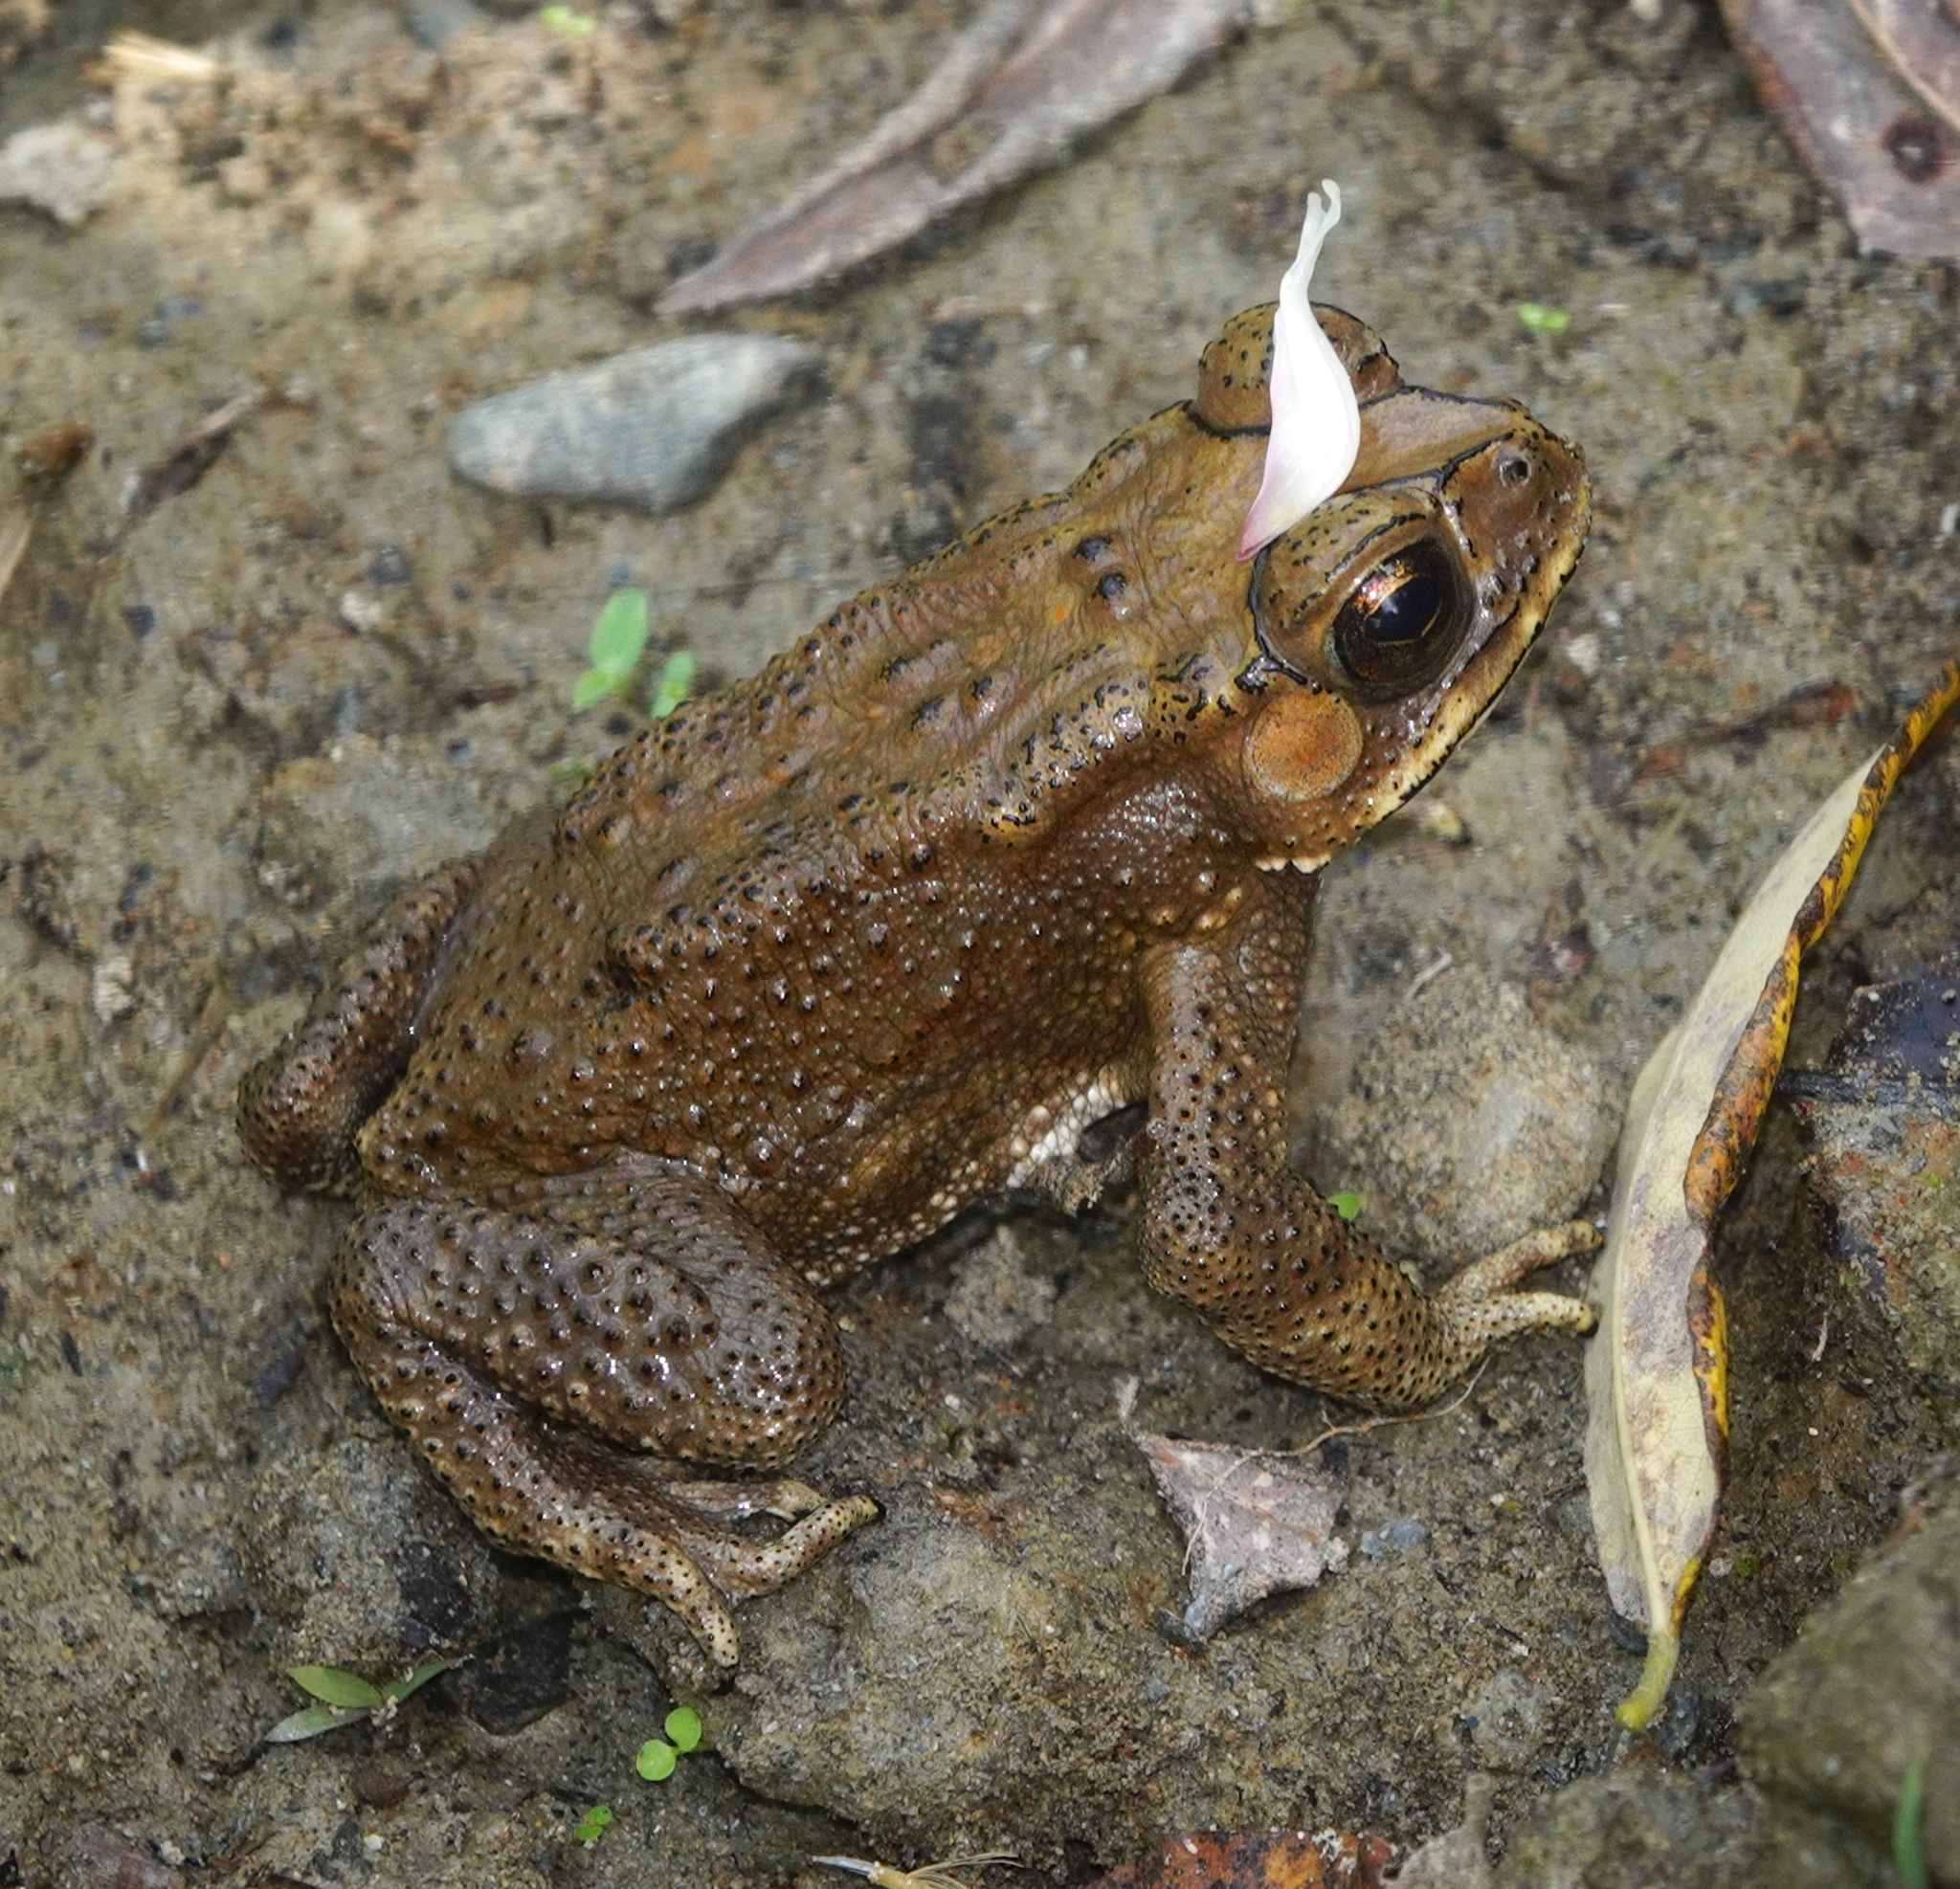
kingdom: Animalia
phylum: Chordata
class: Amphibia
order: Anura
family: Bufonidae
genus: Duttaphrynus
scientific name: Duttaphrynus melanostictus
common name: Common sunda toad
